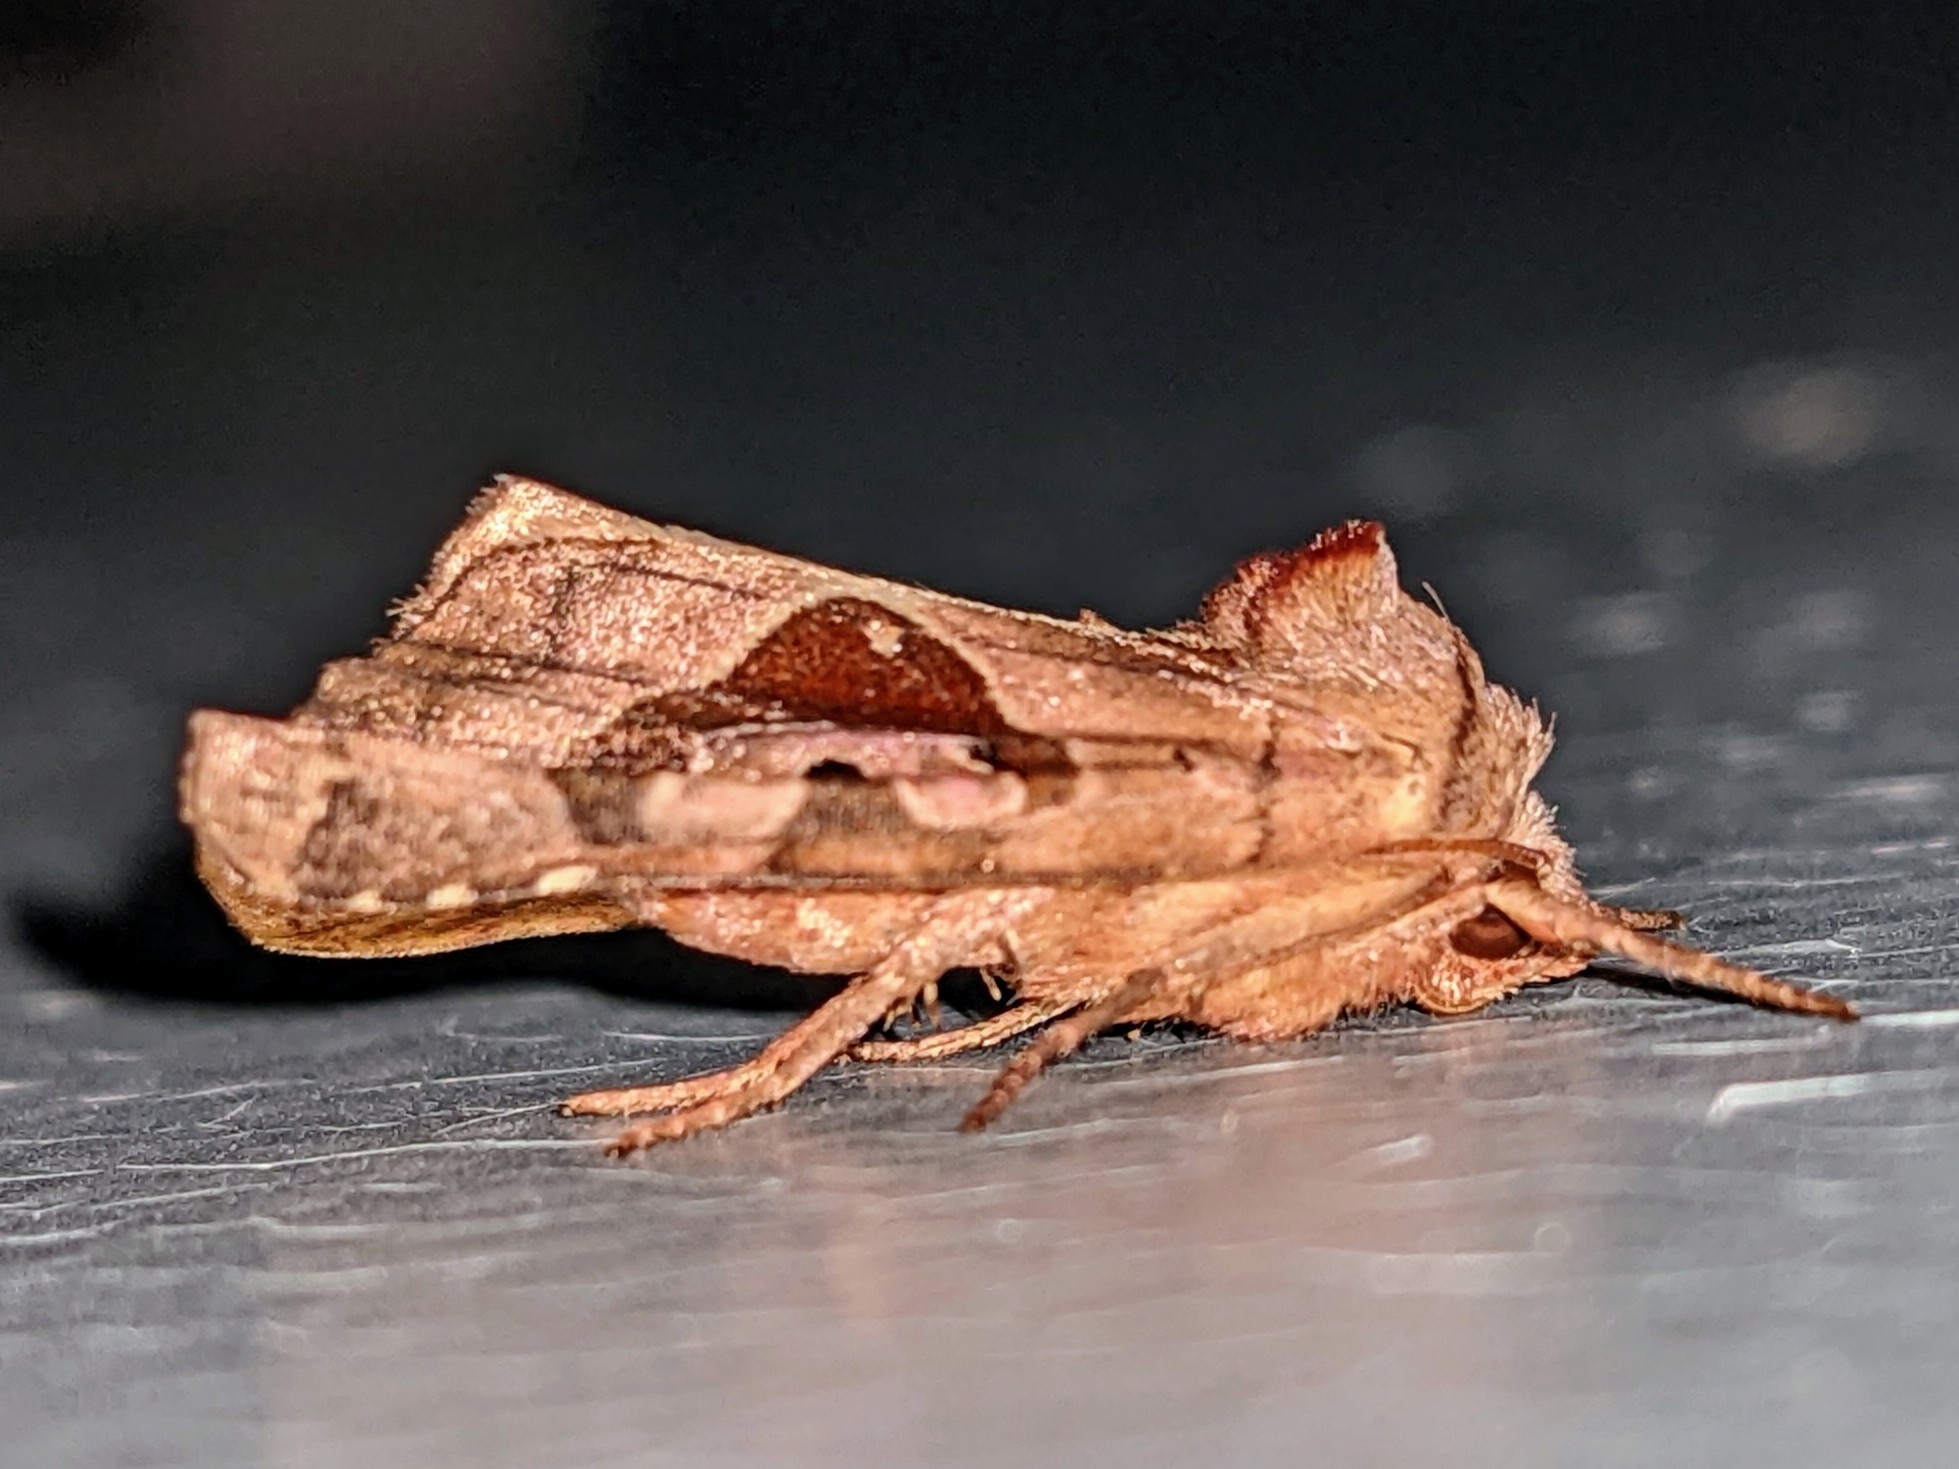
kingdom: Animalia
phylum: Arthropoda
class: Insecta
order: Lepidoptera
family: Noctuidae
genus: Phlogophora
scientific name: Phlogophora periculosa
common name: Brown angle shades
